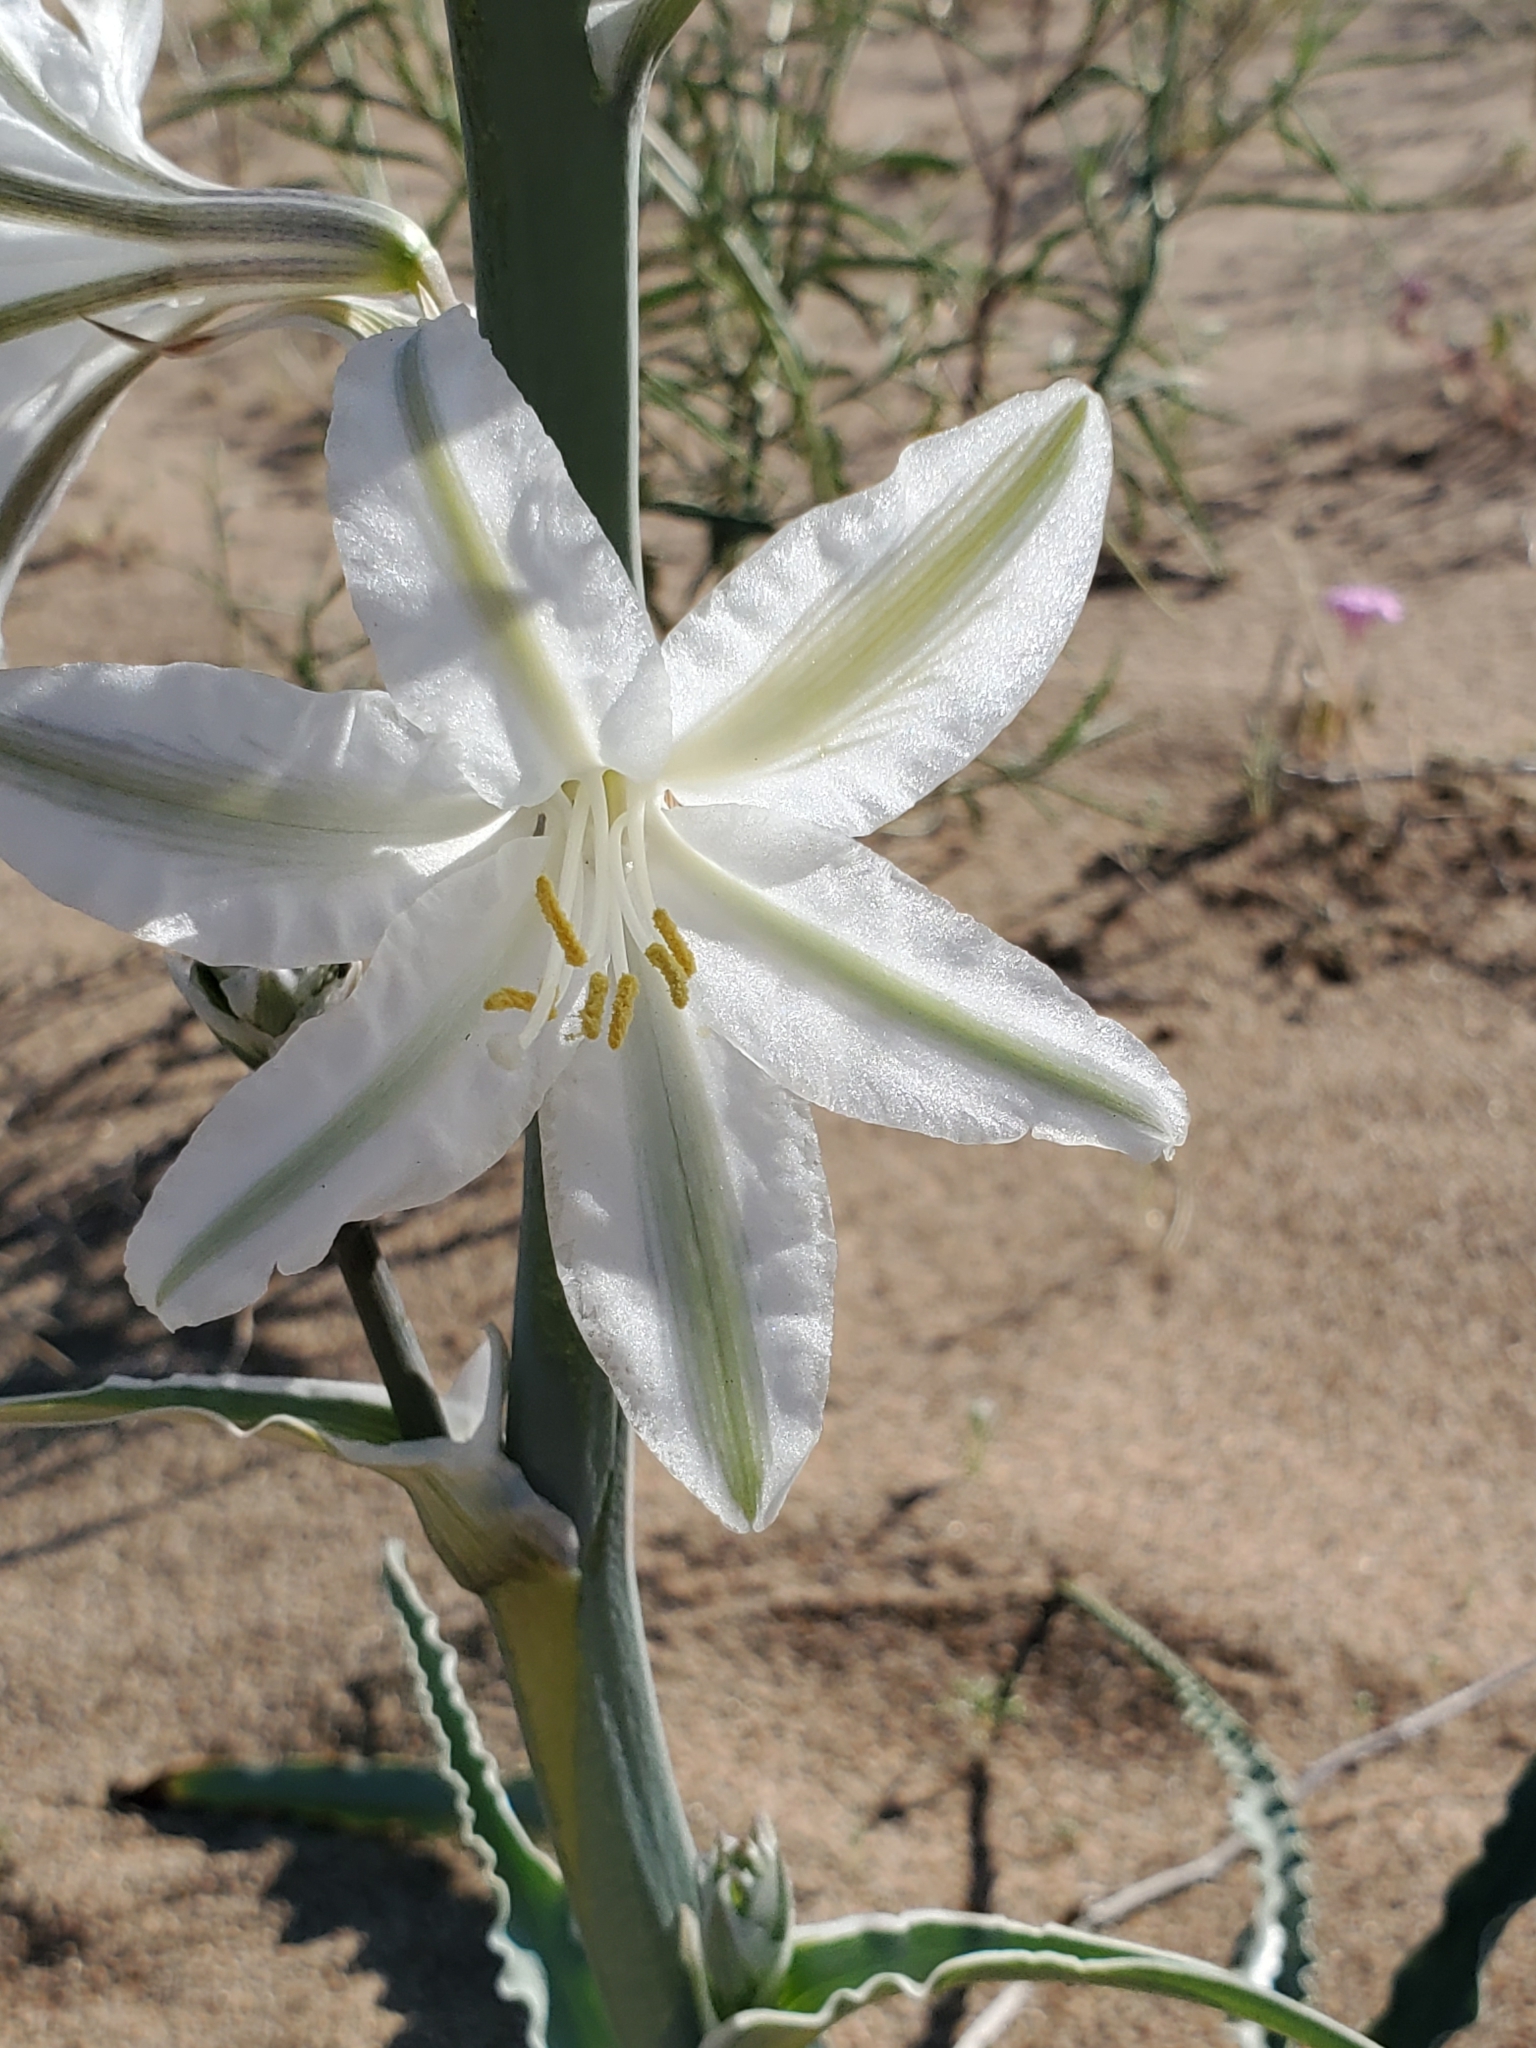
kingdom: Plantae
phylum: Tracheophyta
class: Liliopsida
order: Asparagales
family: Asparagaceae
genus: Hesperocallis
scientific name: Hesperocallis undulata
